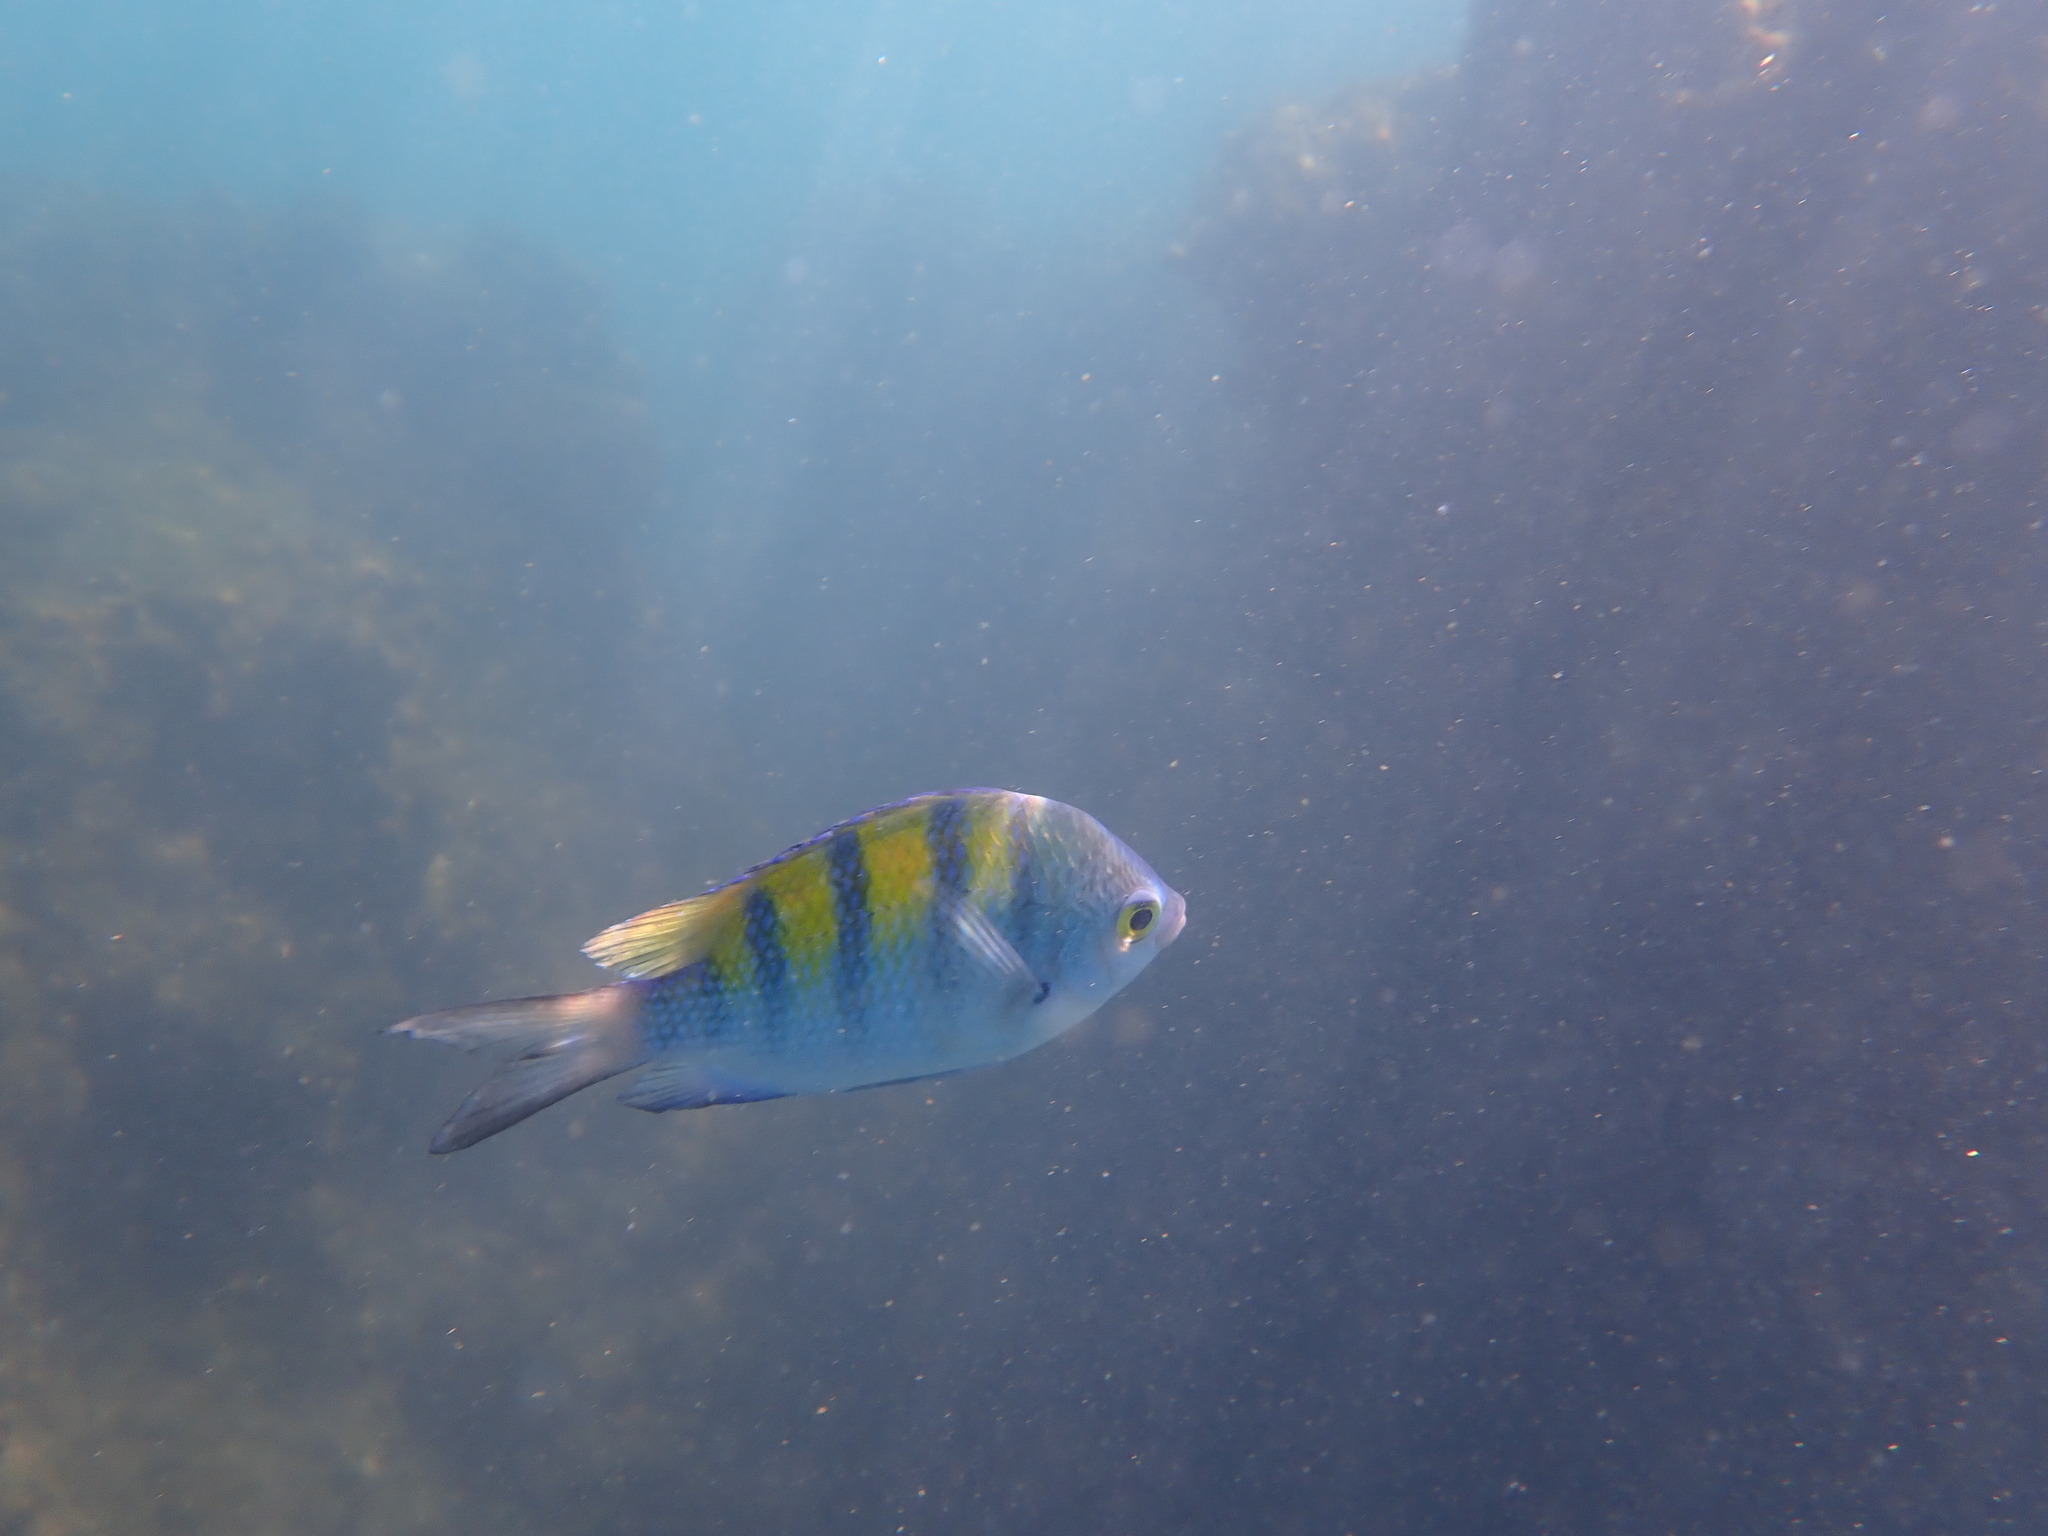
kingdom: Animalia
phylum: Chordata
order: Perciformes
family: Pomacentridae
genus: Abudefduf
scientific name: Abudefduf troschelii
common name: Panamic sergeant major
